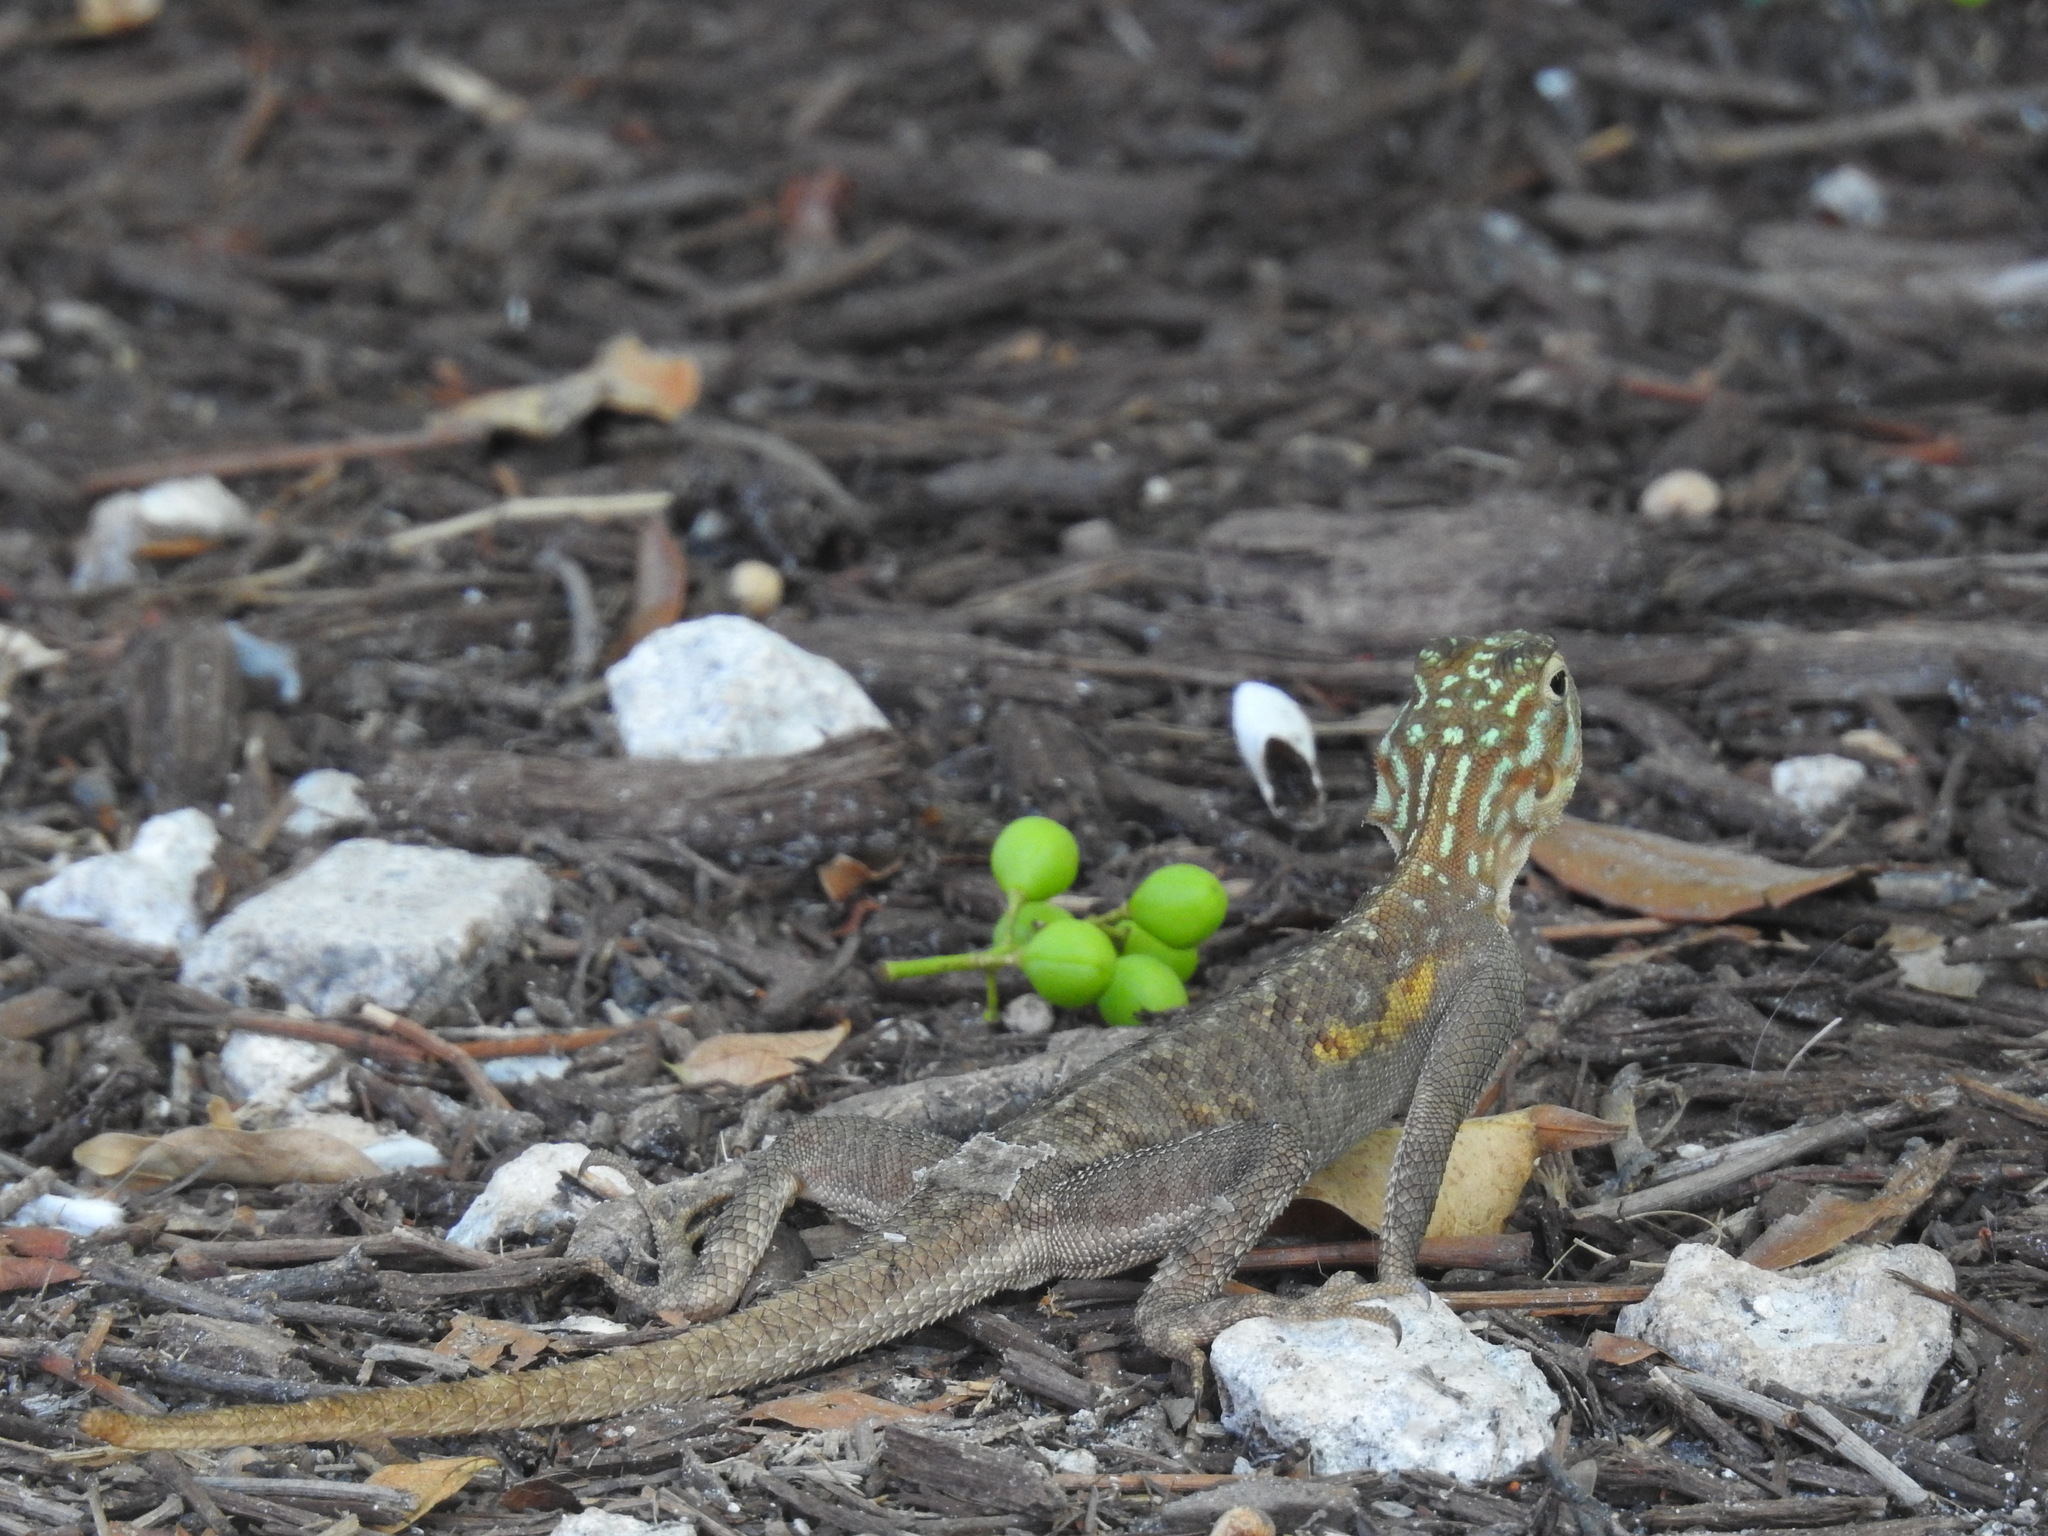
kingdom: Animalia
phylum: Chordata
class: Squamata
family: Agamidae
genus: Agama
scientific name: Agama picticauda
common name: Red-headed agama
